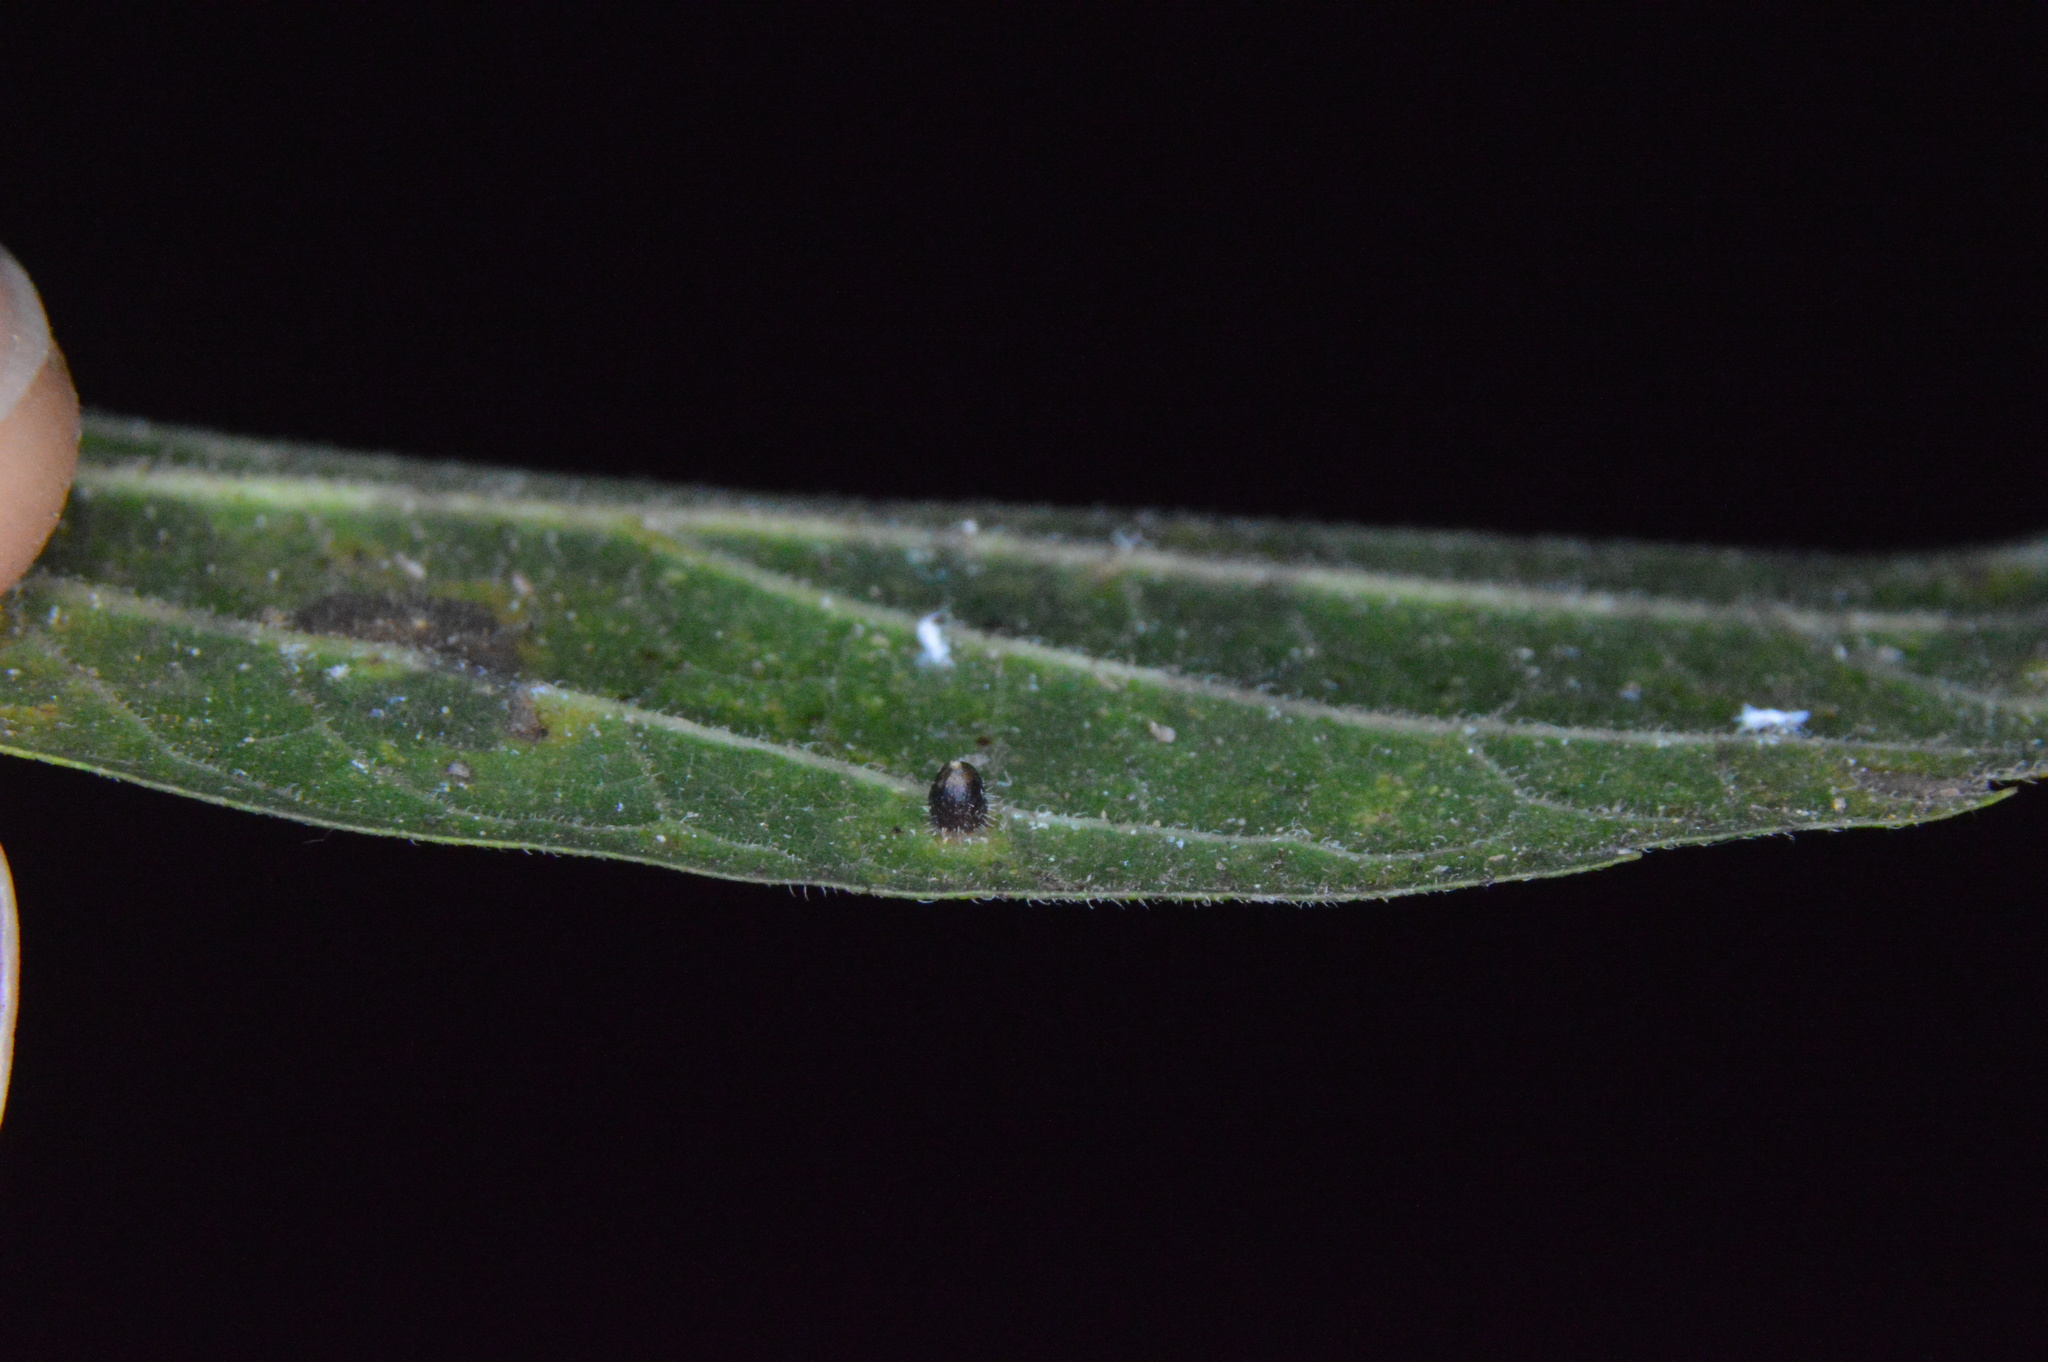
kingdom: Animalia
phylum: Arthropoda
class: Insecta
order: Diptera
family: Cecidomyiidae
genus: Celticecis
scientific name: Celticecis cupiformis
